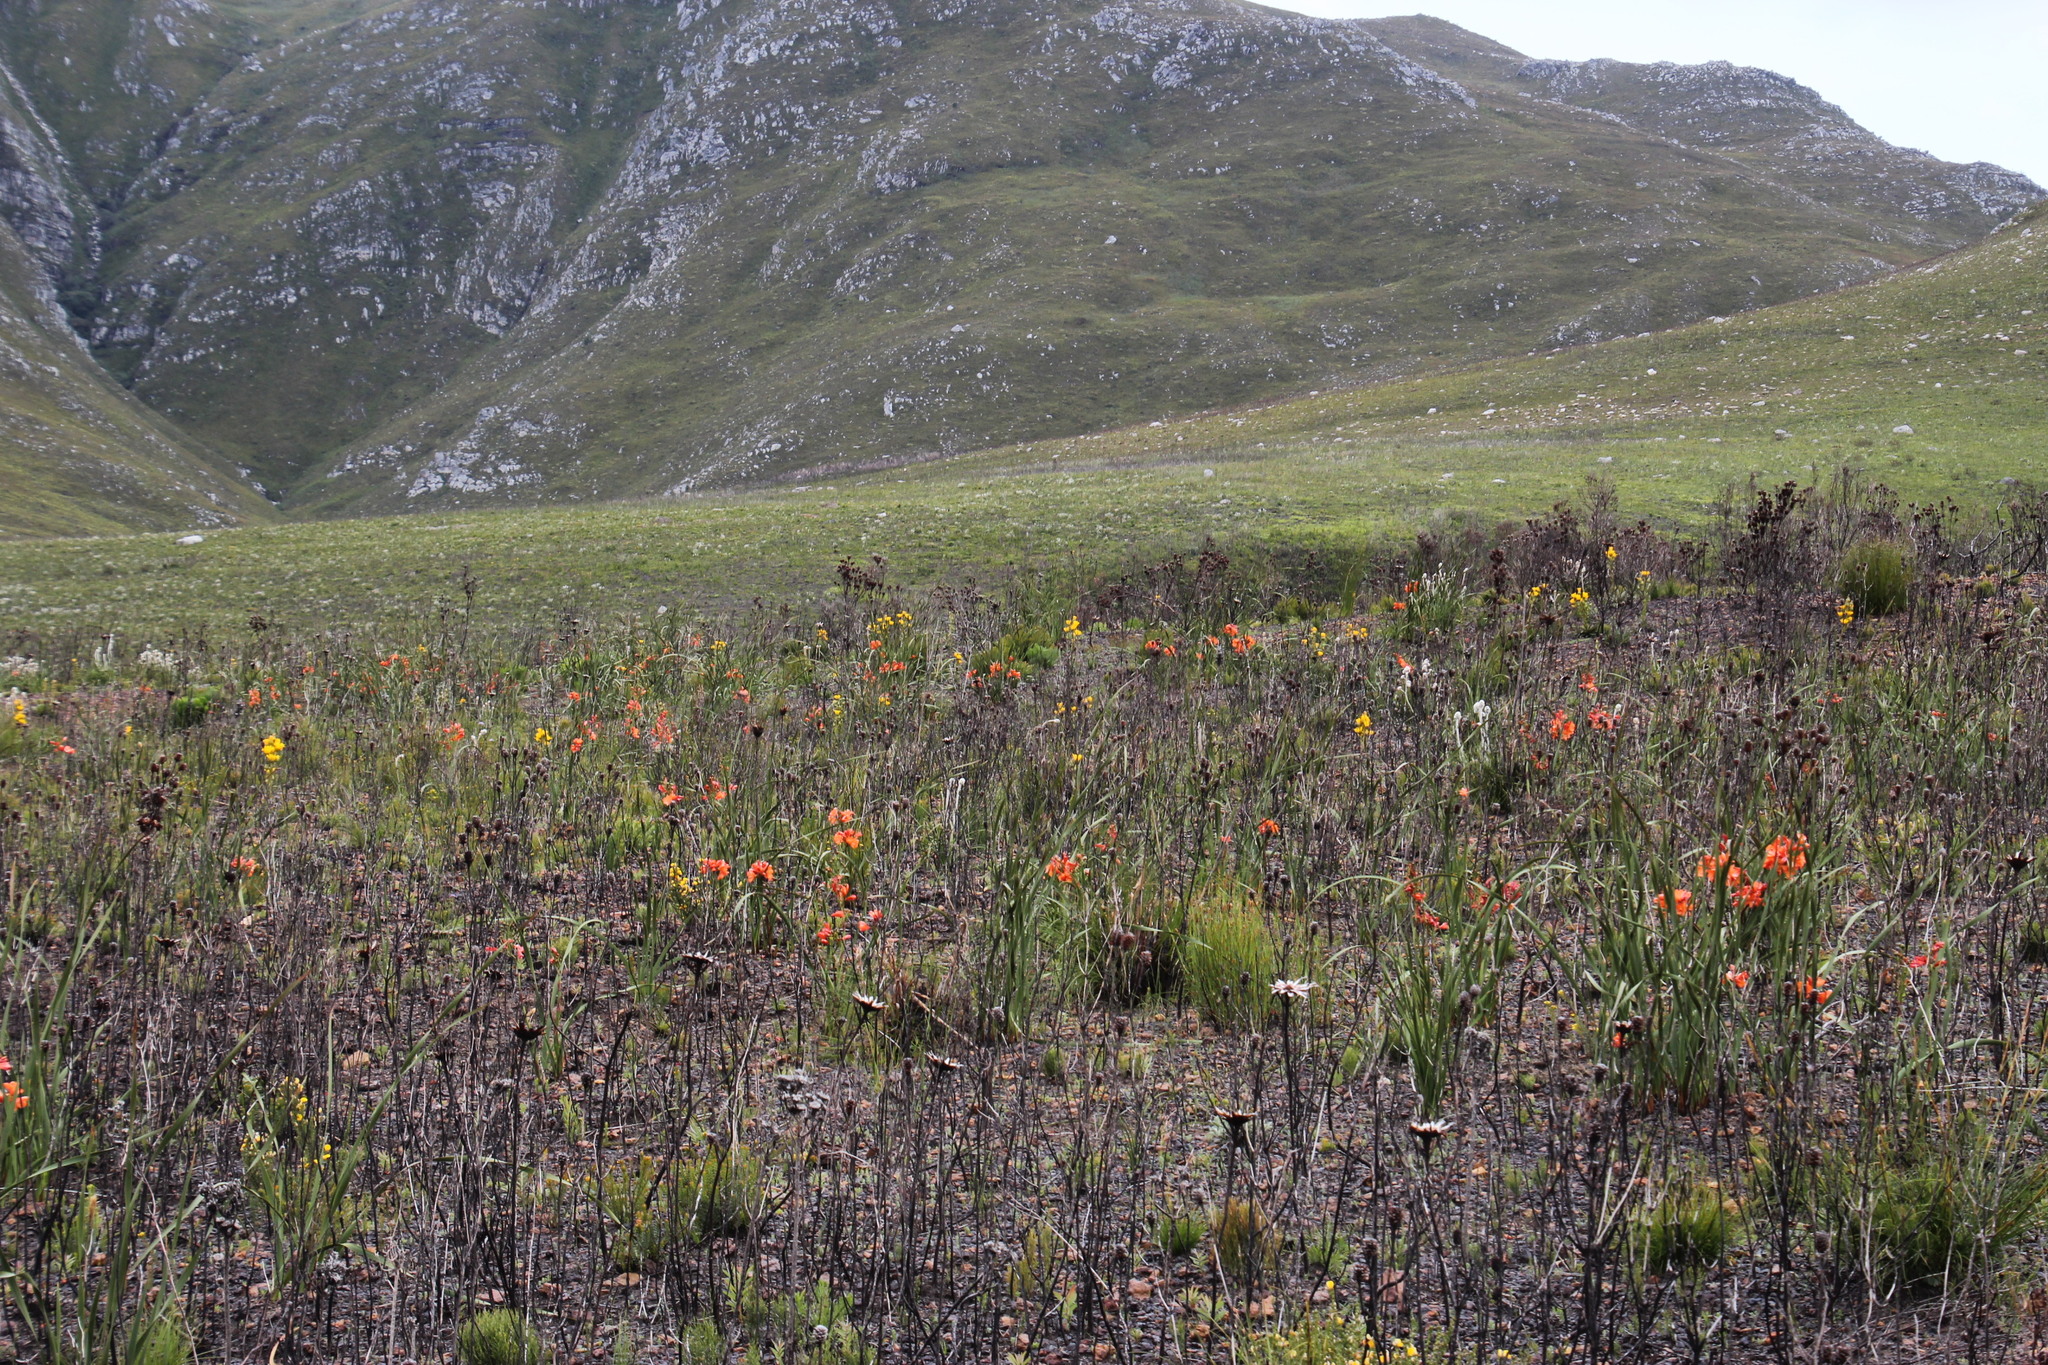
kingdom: Plantae
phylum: Tracheophyta
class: Liliopsida
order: Asparagales
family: Iridaceae
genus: Pillansia
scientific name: Pillansia templemannii
